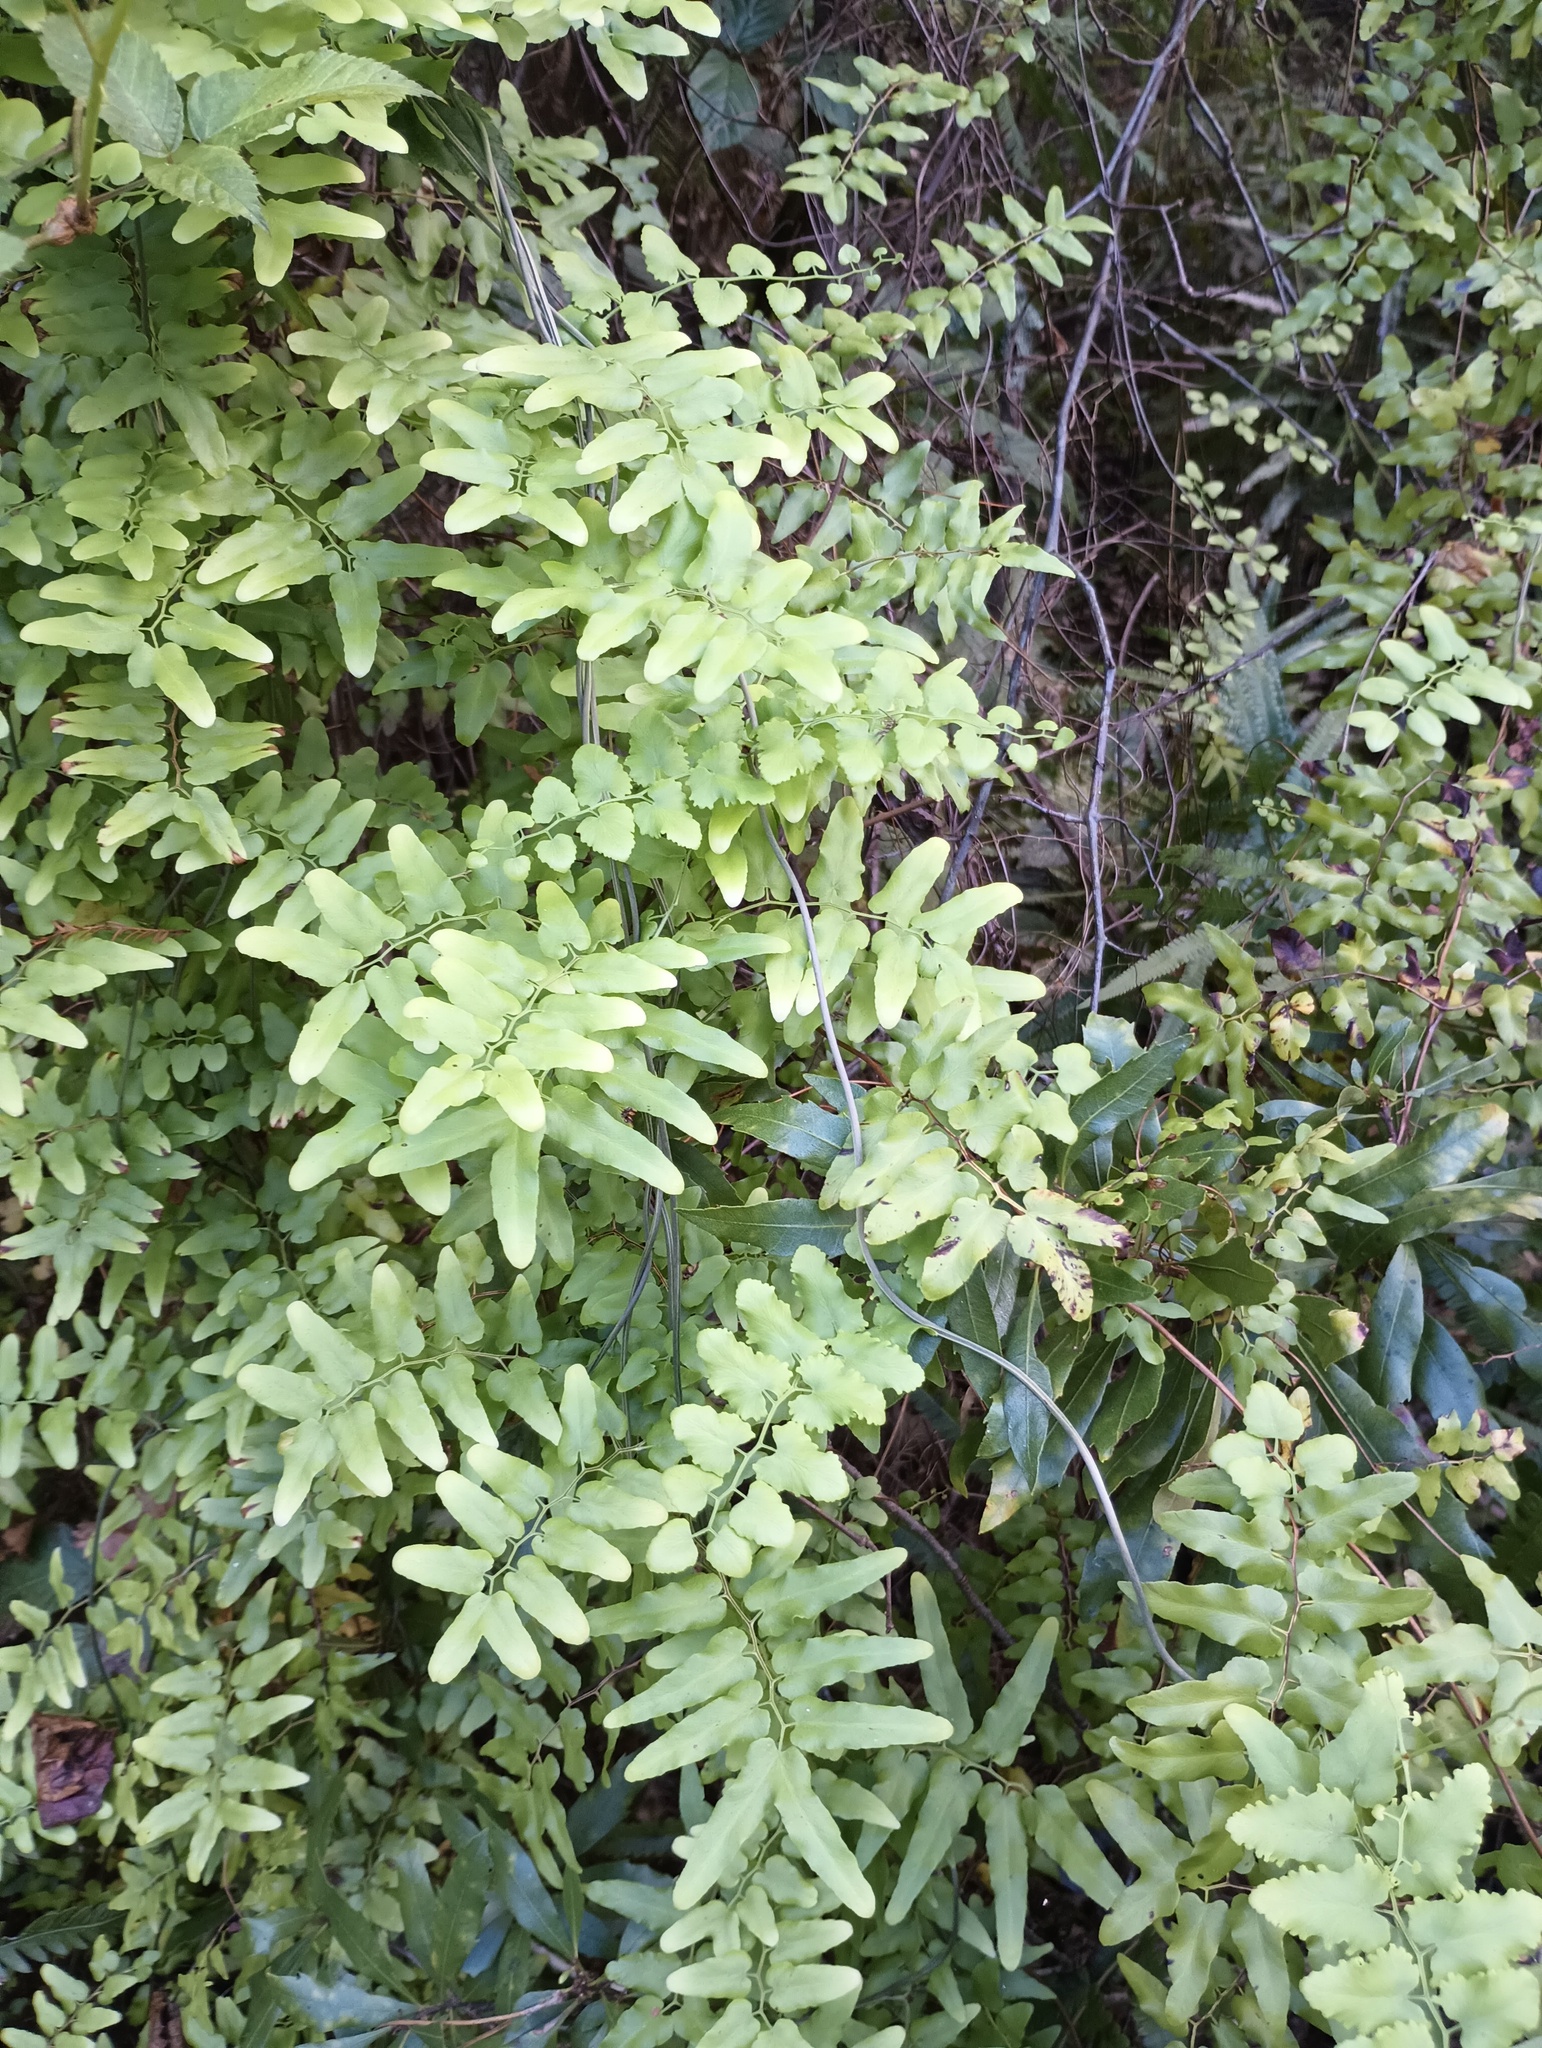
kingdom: Plantae
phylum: Tracheophyta
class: Polypodiopsida
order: Schizaeales
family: Lygodiaceae
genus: Lygodium
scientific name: Lygodium microphyllum
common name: Small-leaf climbing fern
